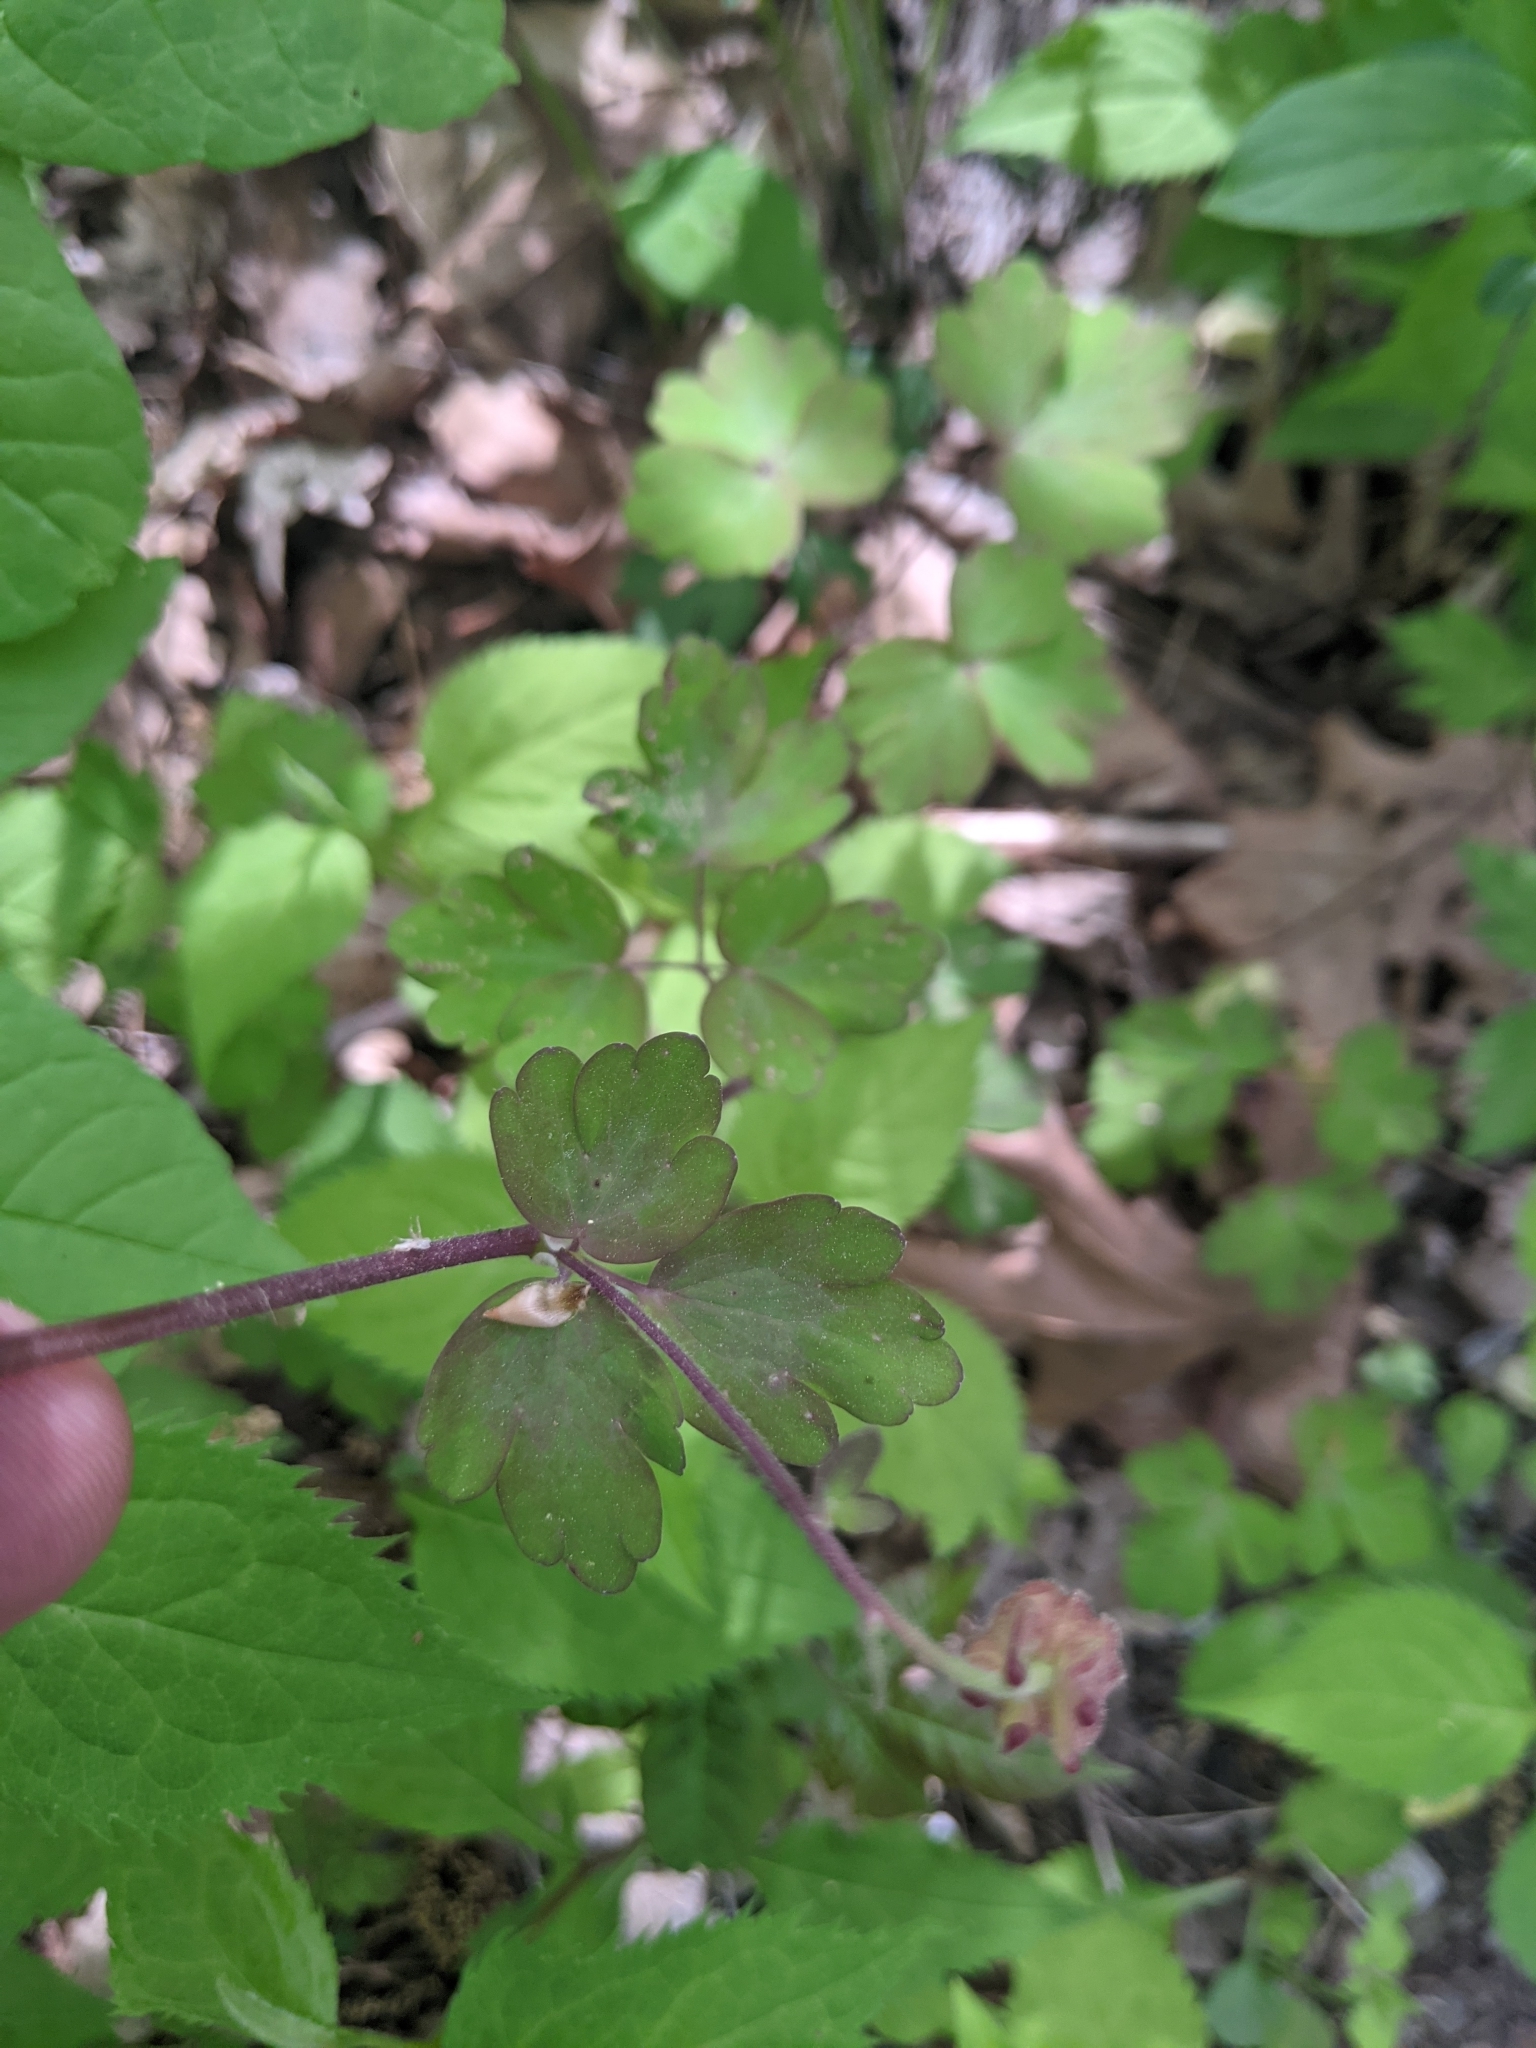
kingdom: Plantae
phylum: Tracheophyta
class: Liliopsida
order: Asparagales
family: Asparagaceae
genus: Ornithogalum
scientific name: Ornithogalum umbellatum
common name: Garden star-of-bethlehem
